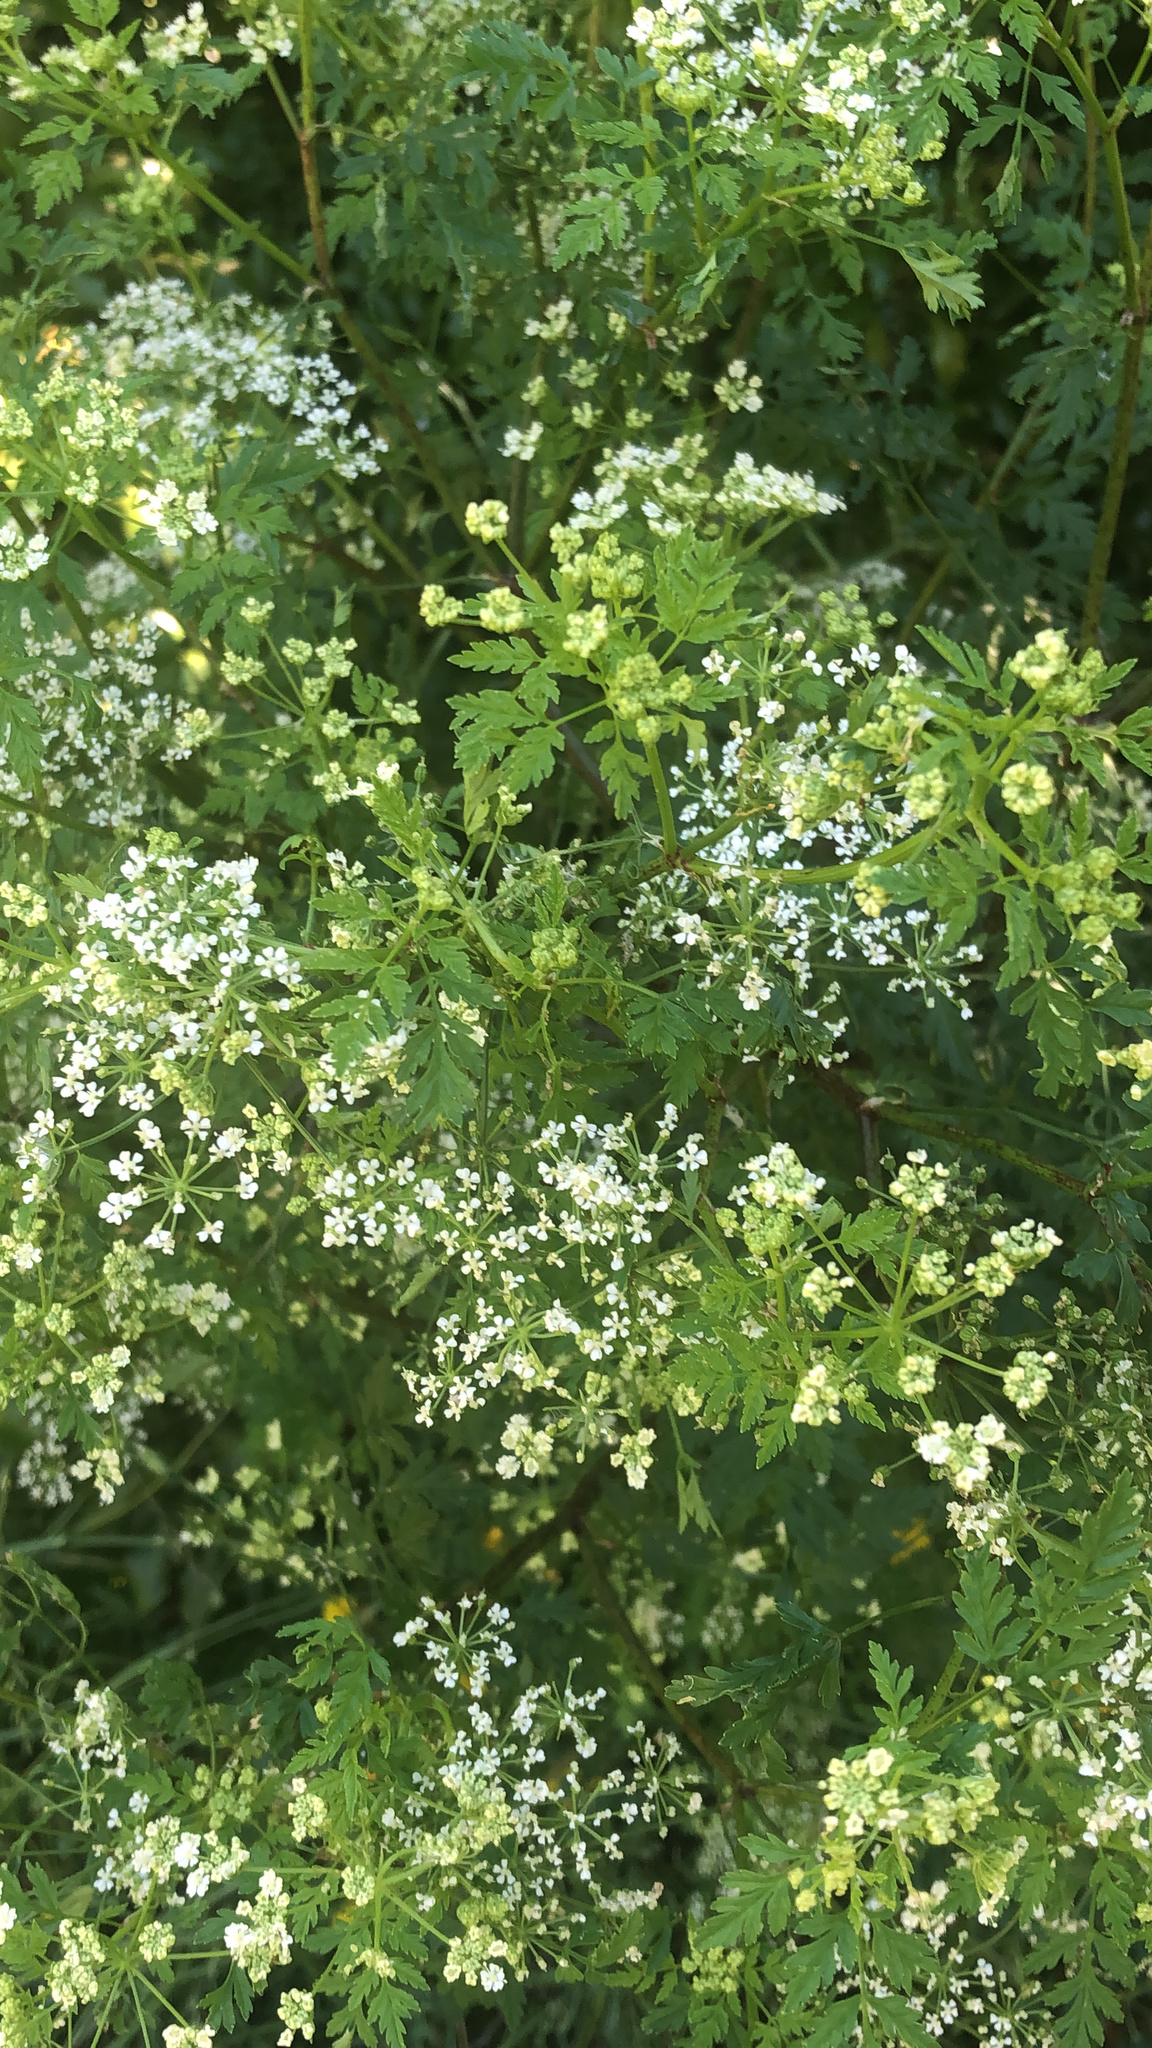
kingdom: Plantae
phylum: Tracheophyta
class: Magnoliopsida
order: Apiales
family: Apiaceae
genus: Conium
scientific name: Conium maculatum
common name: Hemlock
